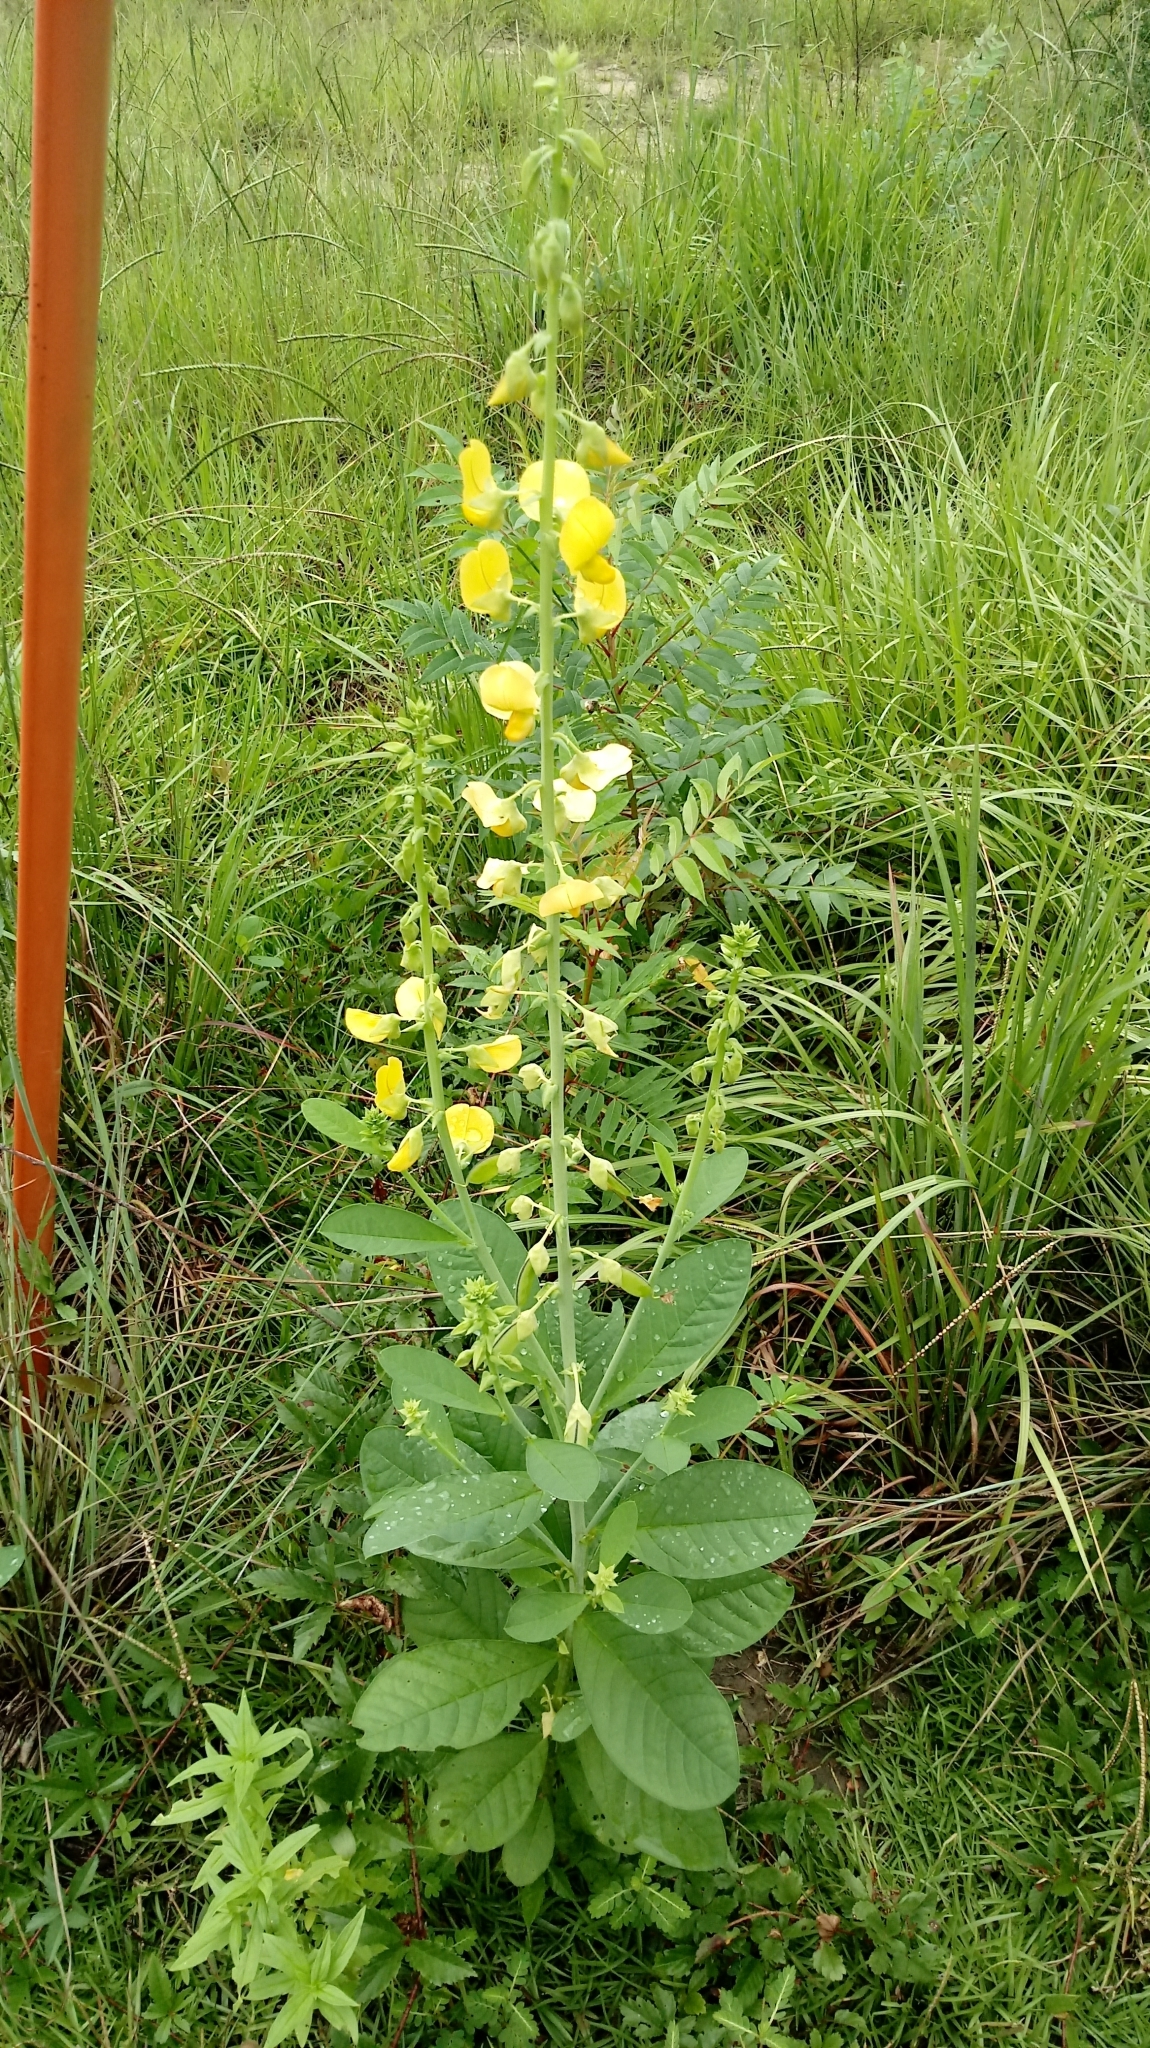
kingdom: Plantae
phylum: Tracheophyta
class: Magnoliopsida
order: Fabales
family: Fabaceae
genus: Crotalaria
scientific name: Crotalaria spectabilis
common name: Showy rattlebox
